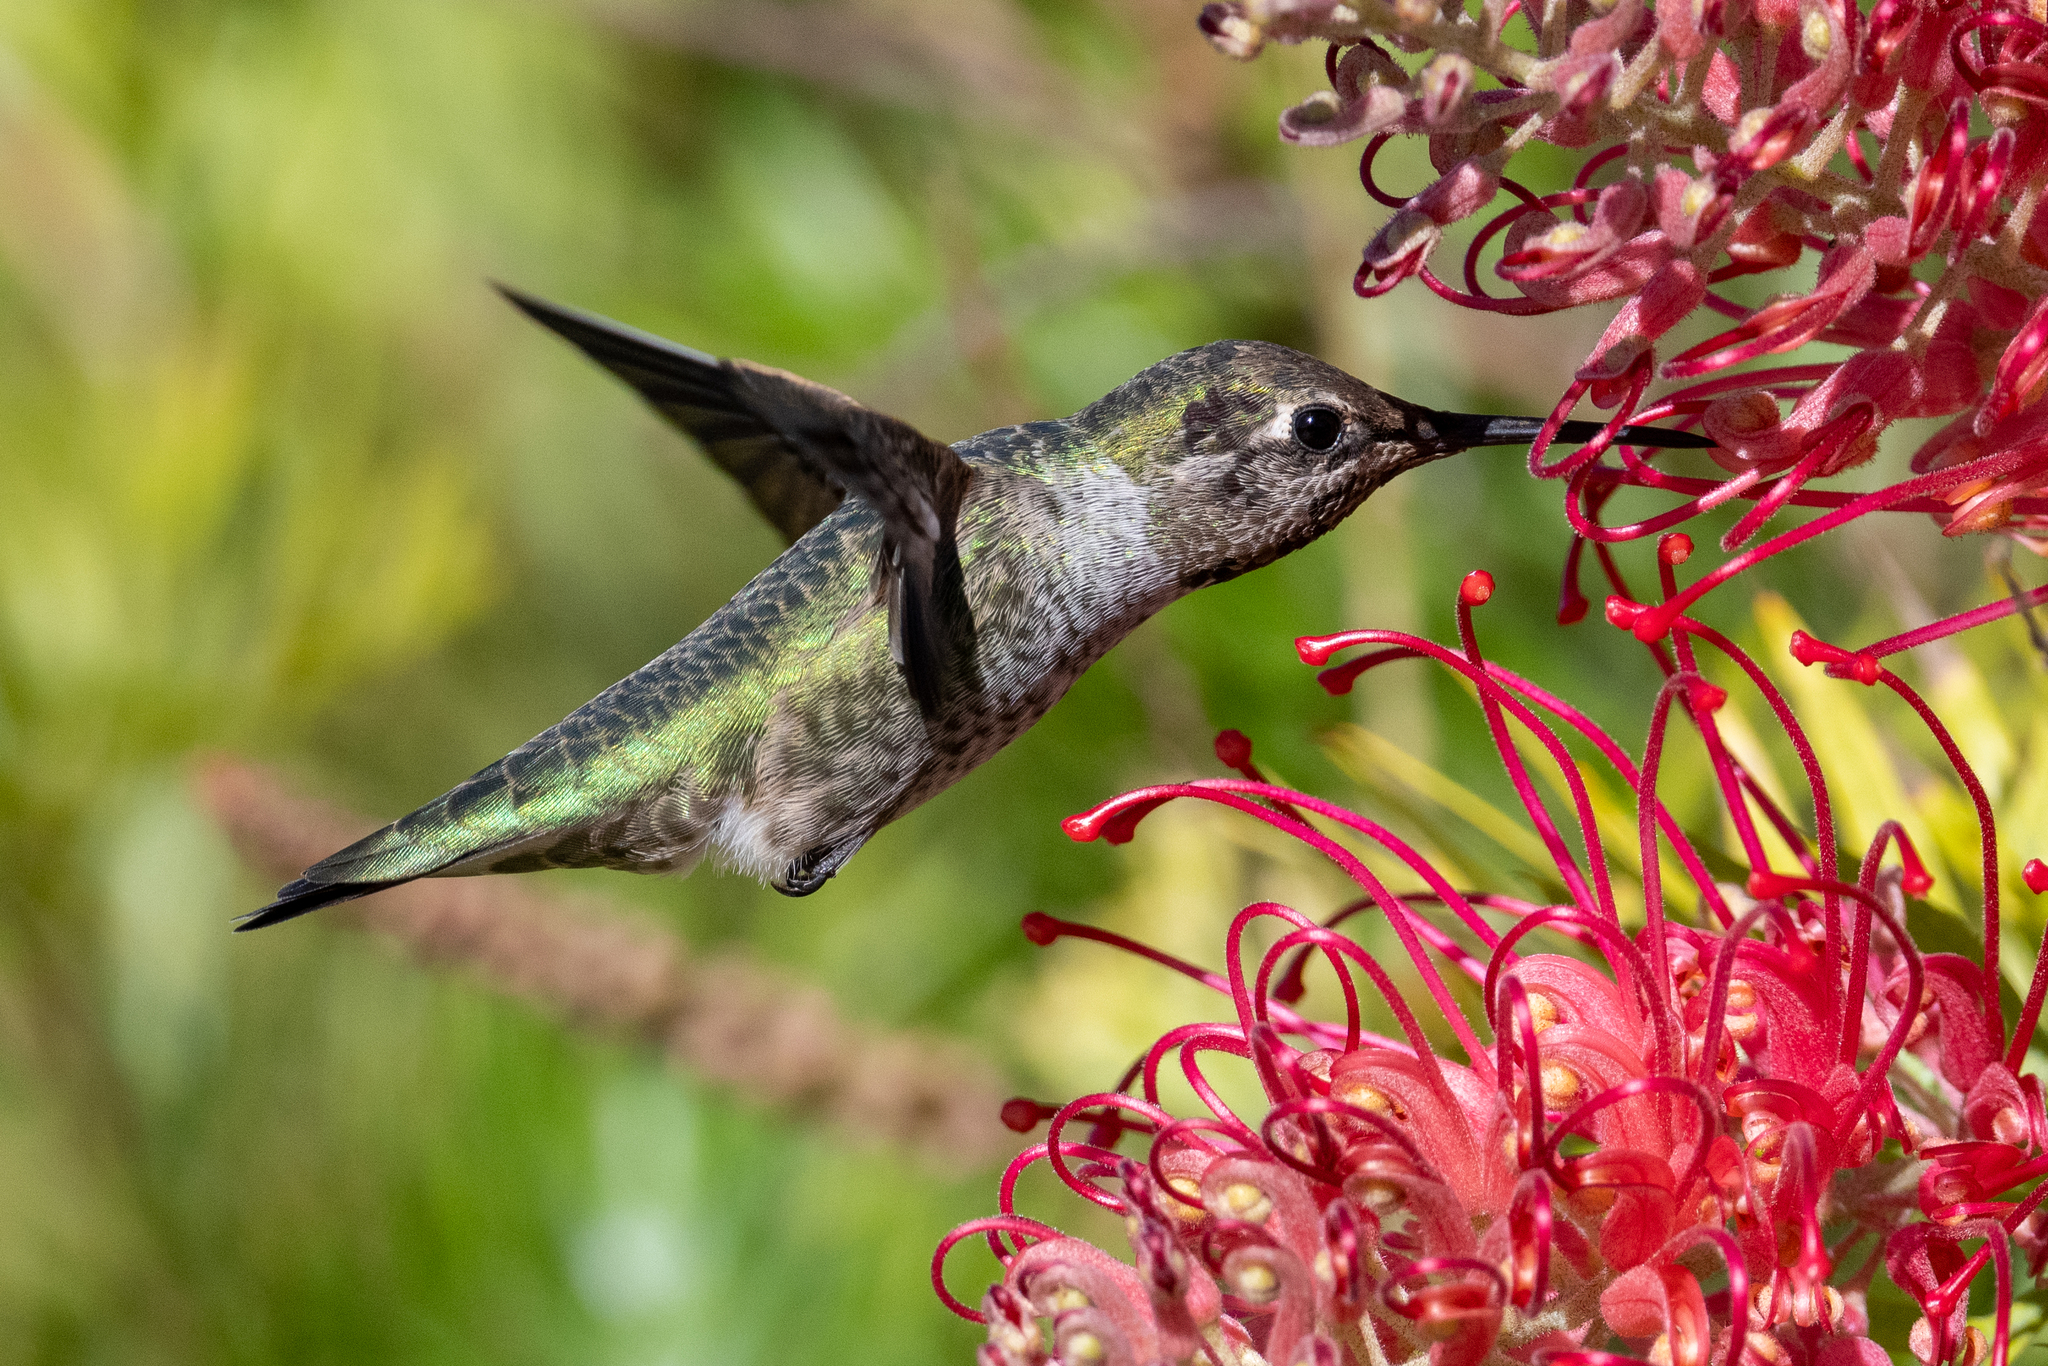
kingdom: Animalia
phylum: Chordata
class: Aves
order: Apodiformes
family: Trochilidae
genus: Calypte
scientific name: Calypte anna
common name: Anna's hummingbird
